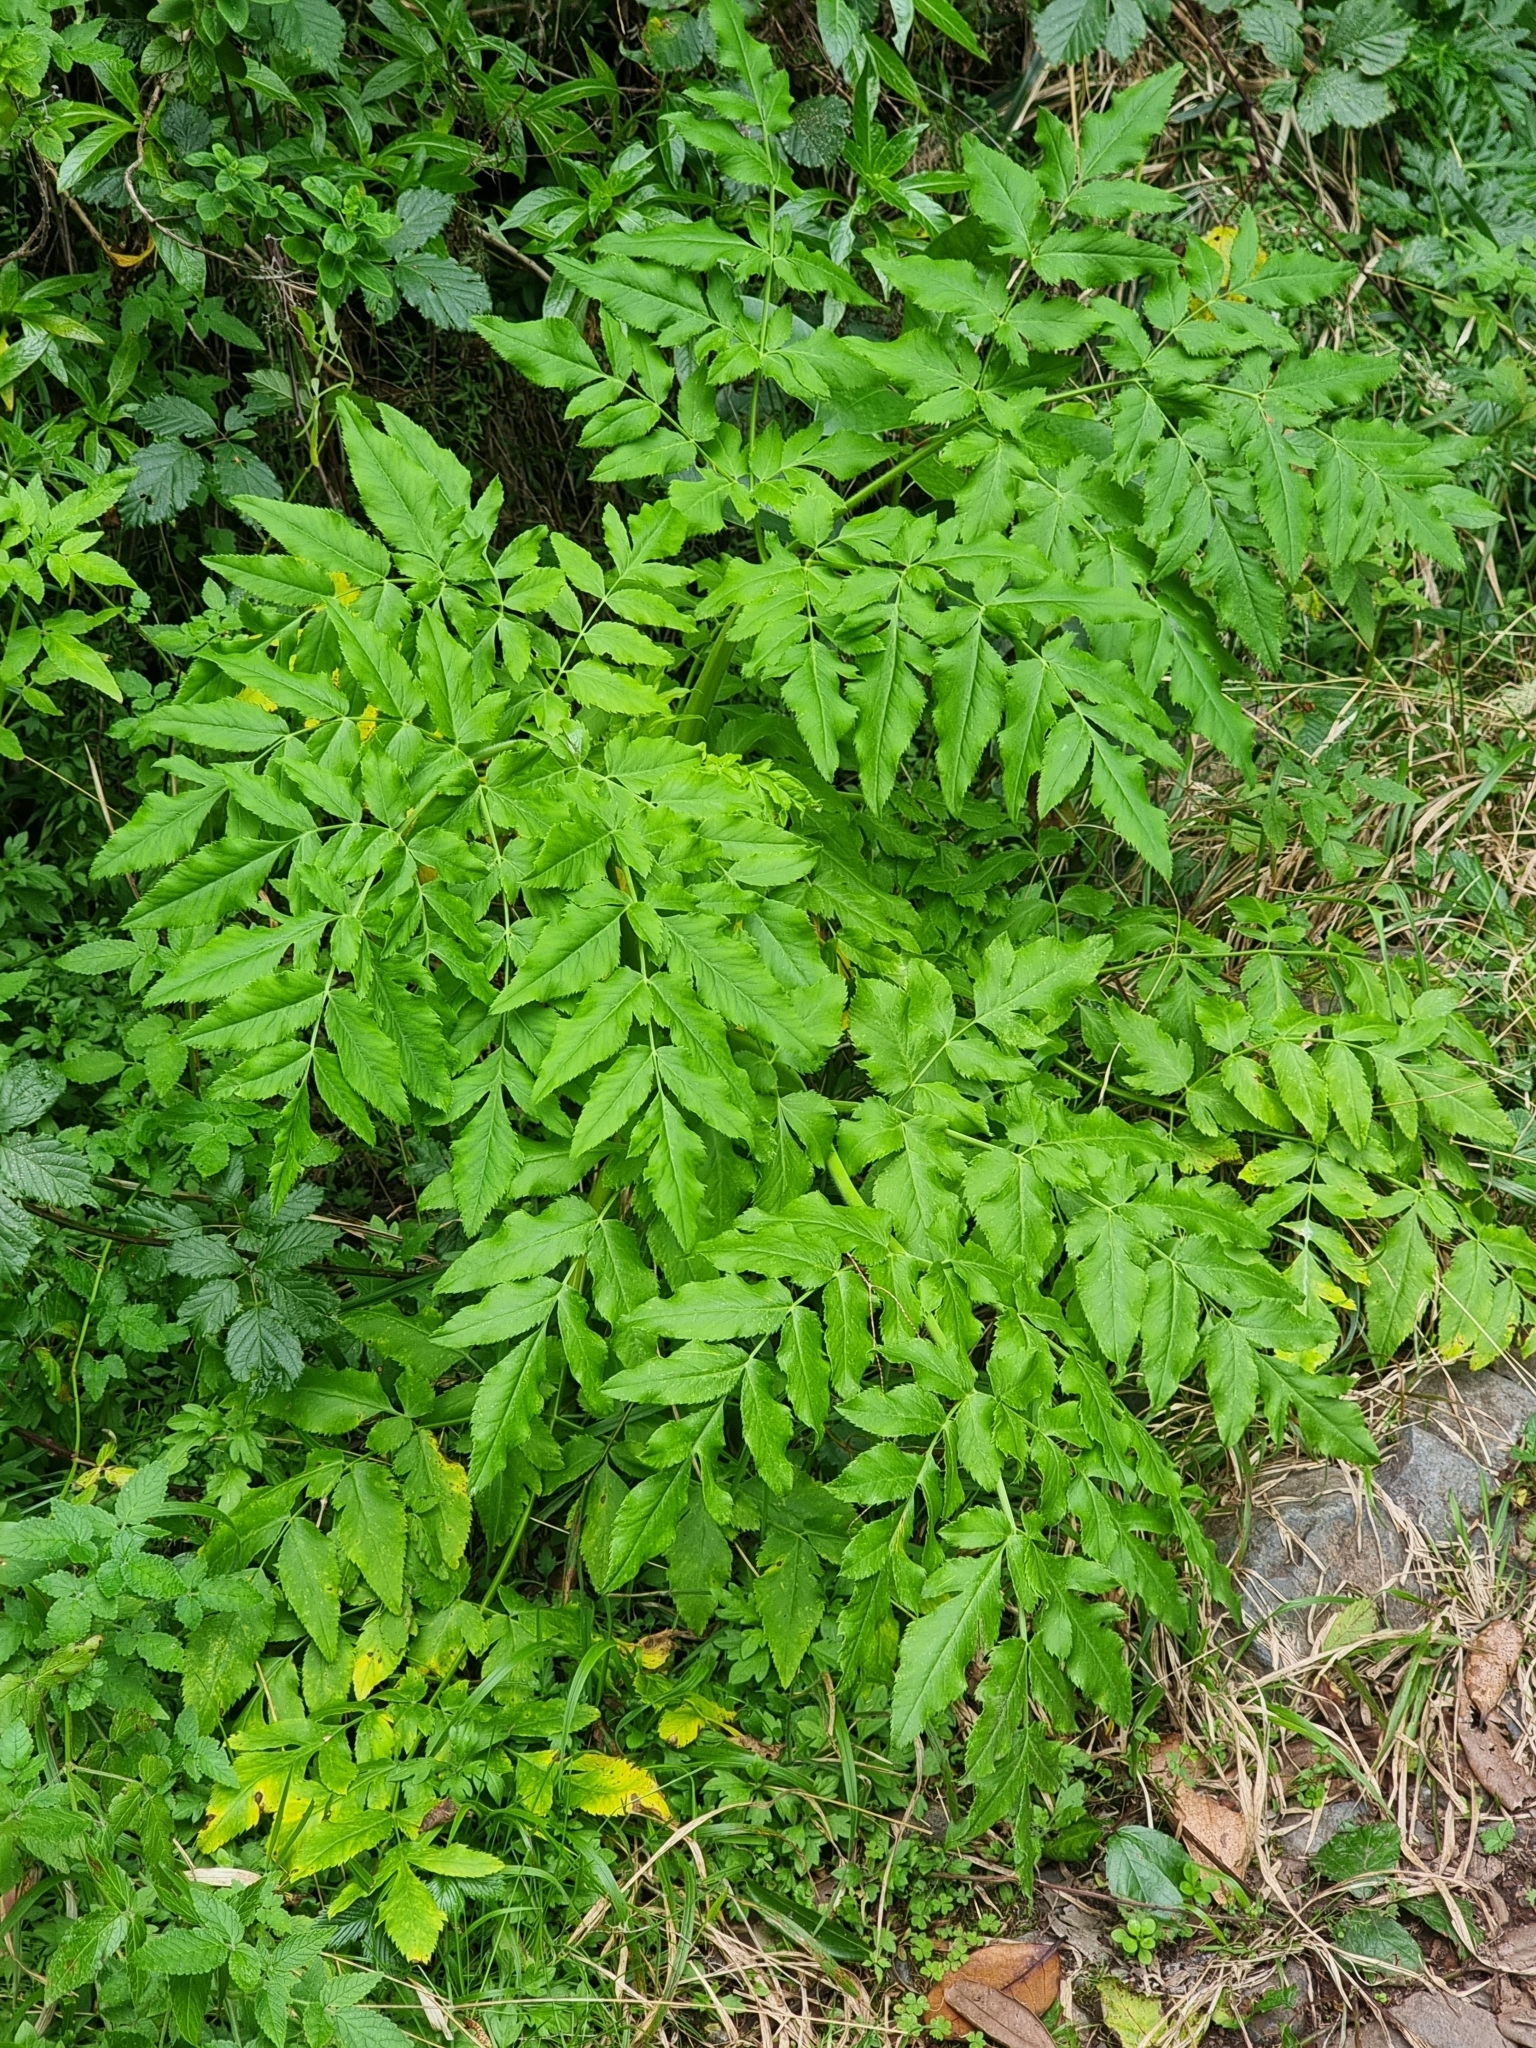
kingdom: Plantae
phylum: Tracheophyta
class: Magnoliopsida
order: Apiales
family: Apiaceae
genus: Daucus
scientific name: Daucus decipiens
